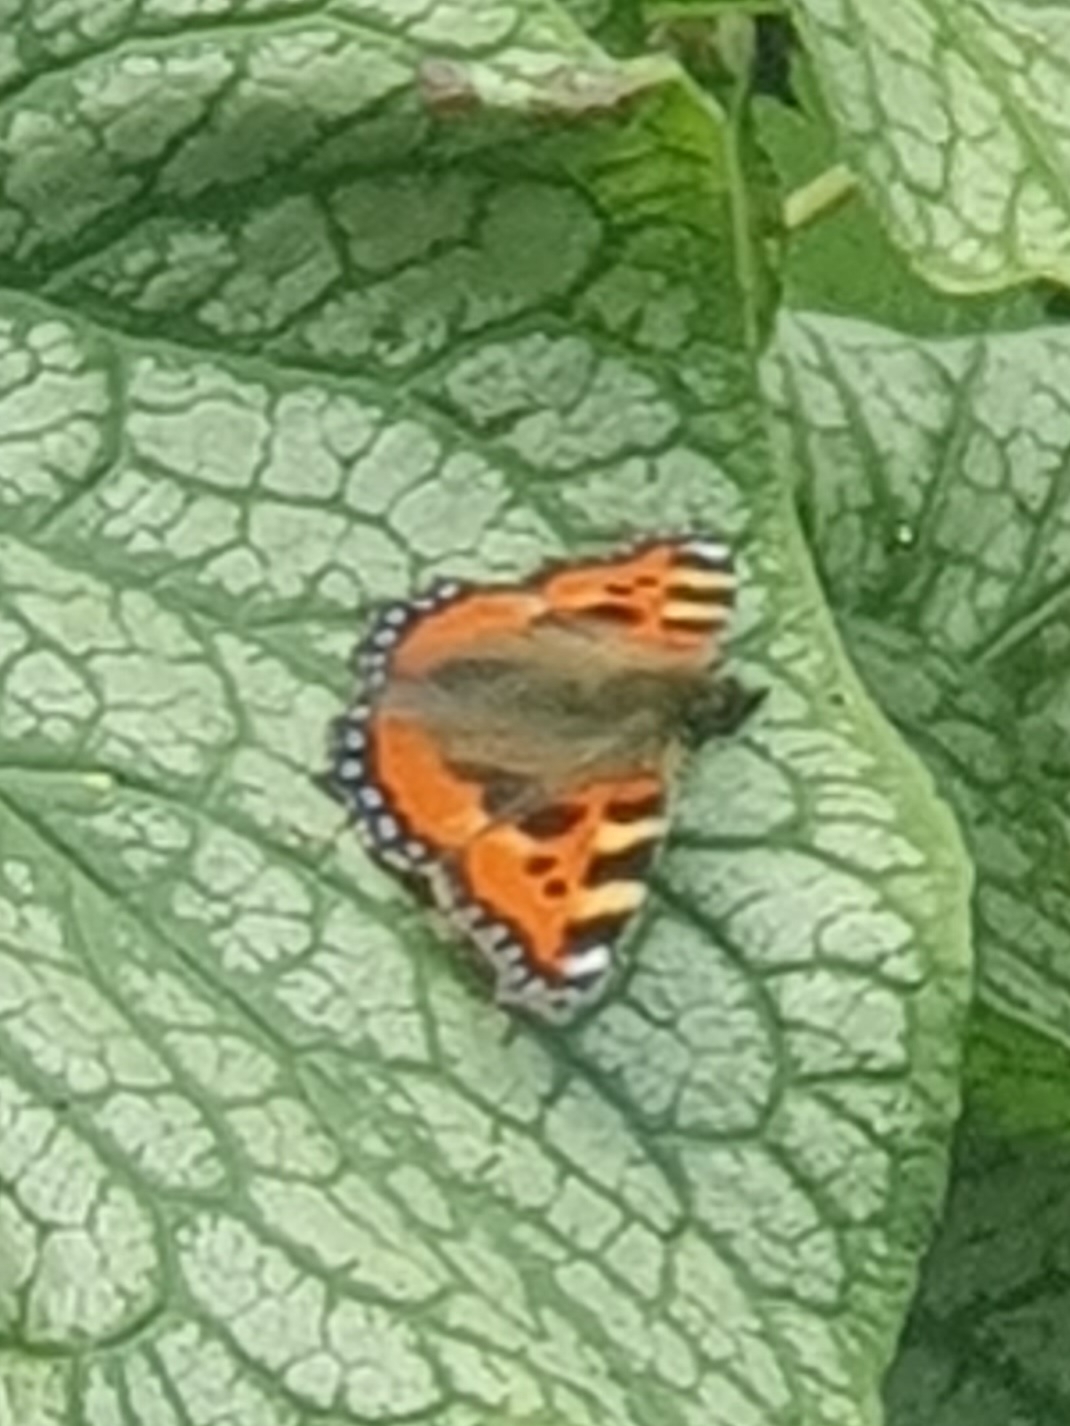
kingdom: Animalia
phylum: Arthropoda
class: Insecta
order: Lepidoptera
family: Nymphalidae
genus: Aglais
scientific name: Aglais urticae
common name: Small tortoiseshell
